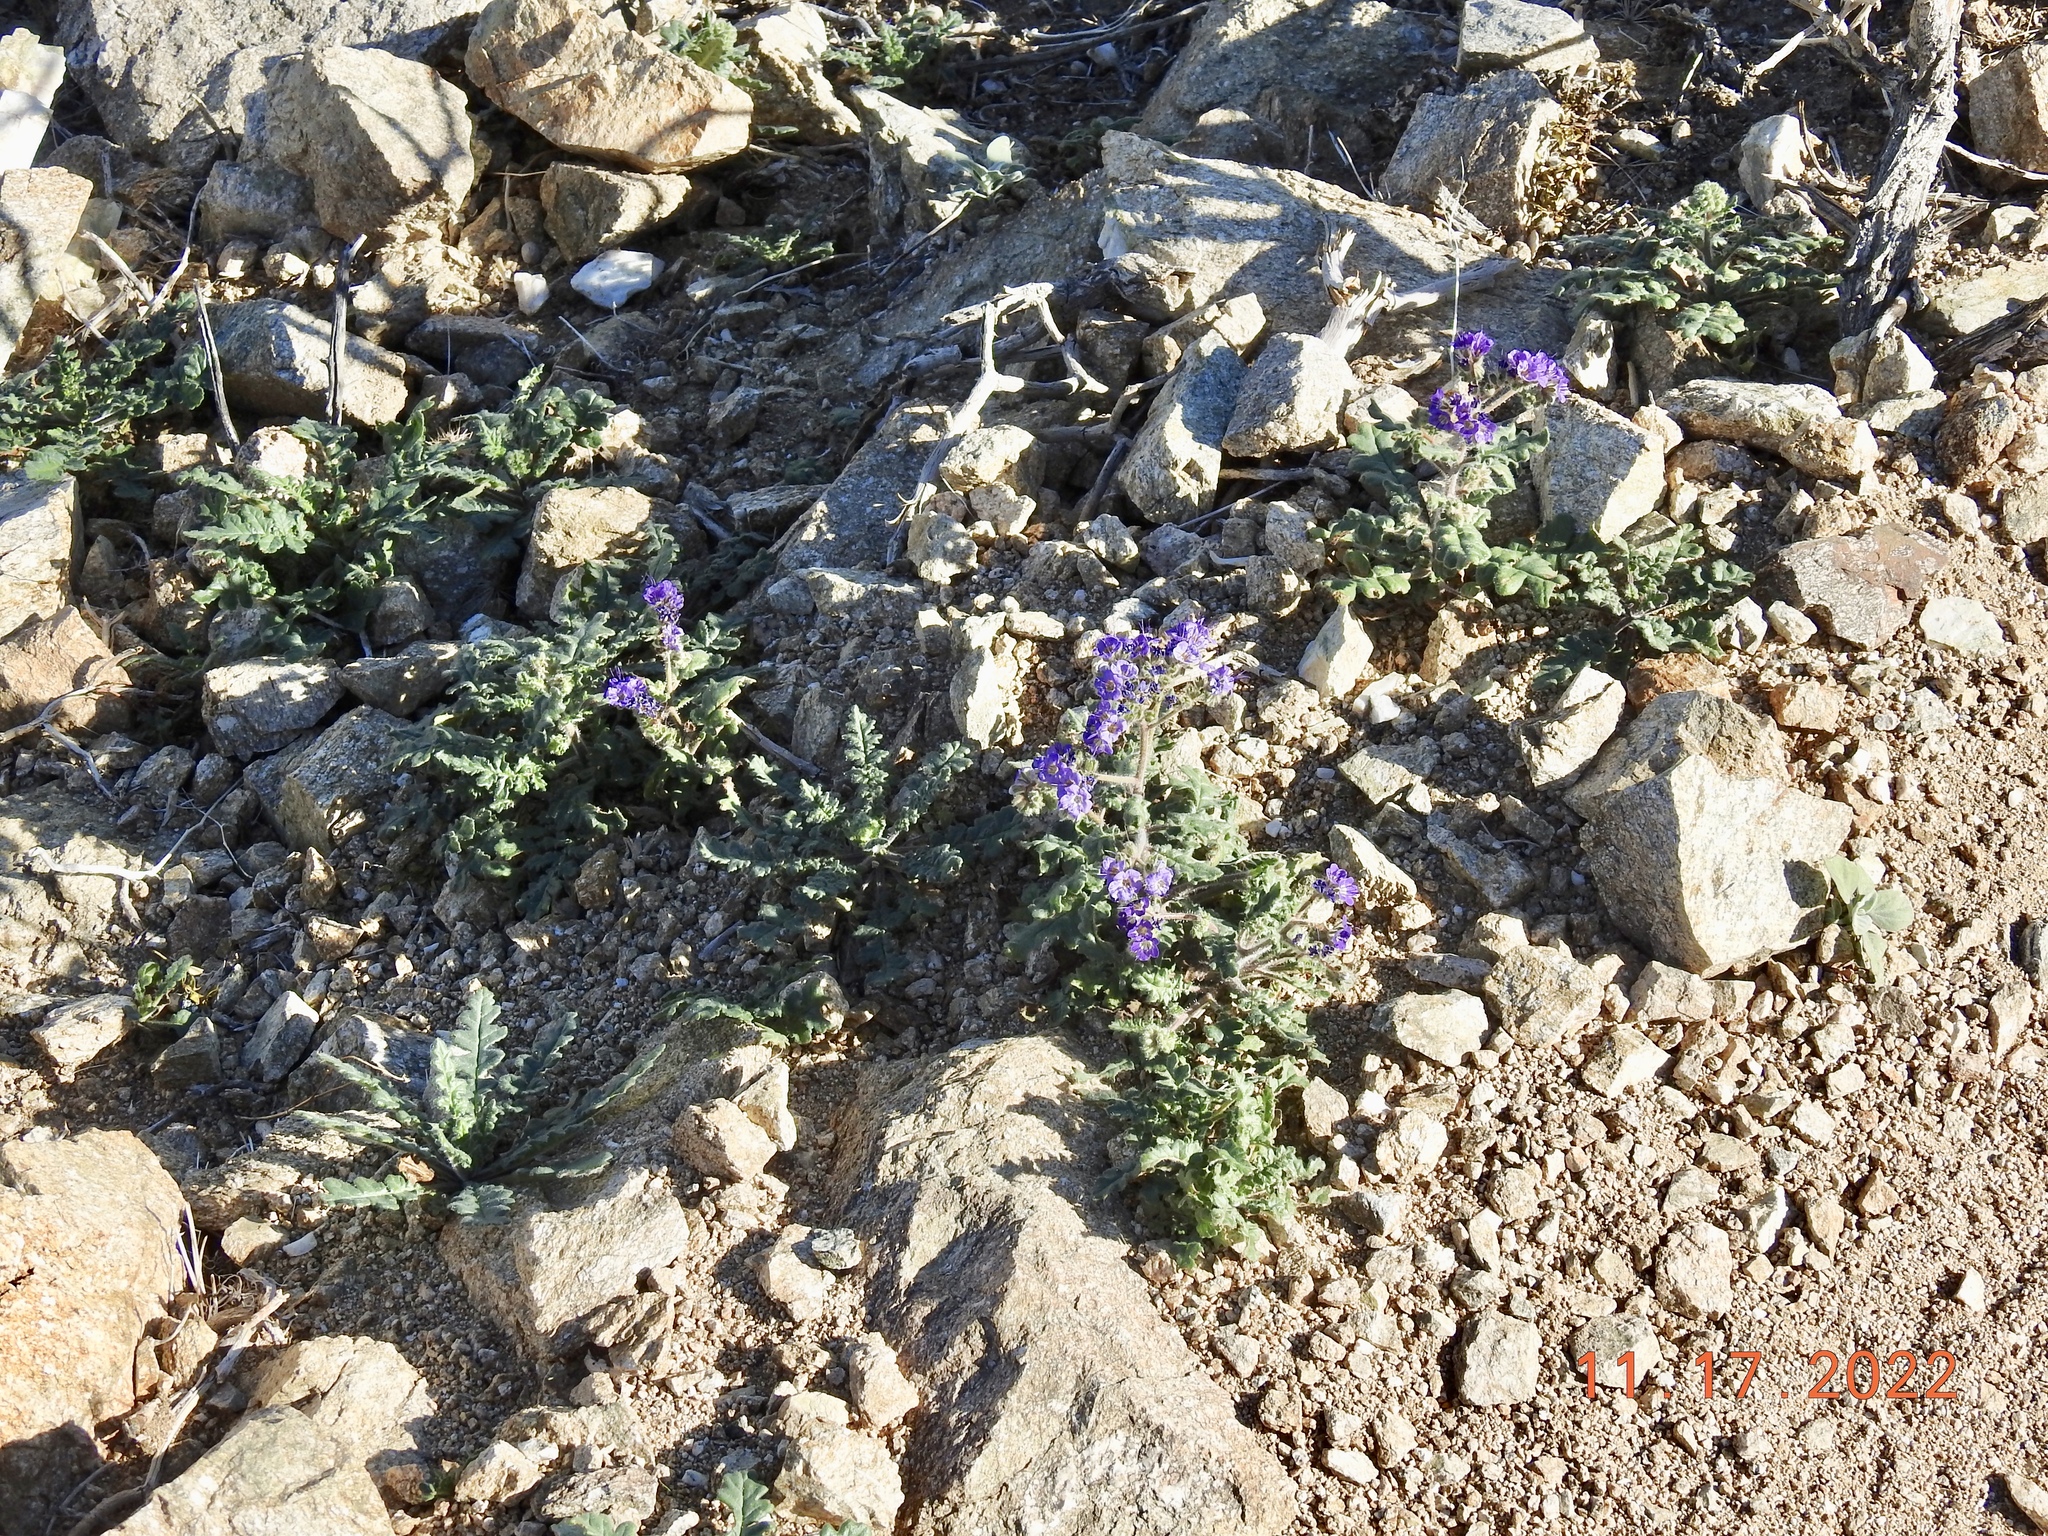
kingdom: Plantae
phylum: Tracheophyta
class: Magnoliopsida
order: Boraginales
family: Hydrophyllaceae
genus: Phacelia
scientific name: Phacelia crenulata
